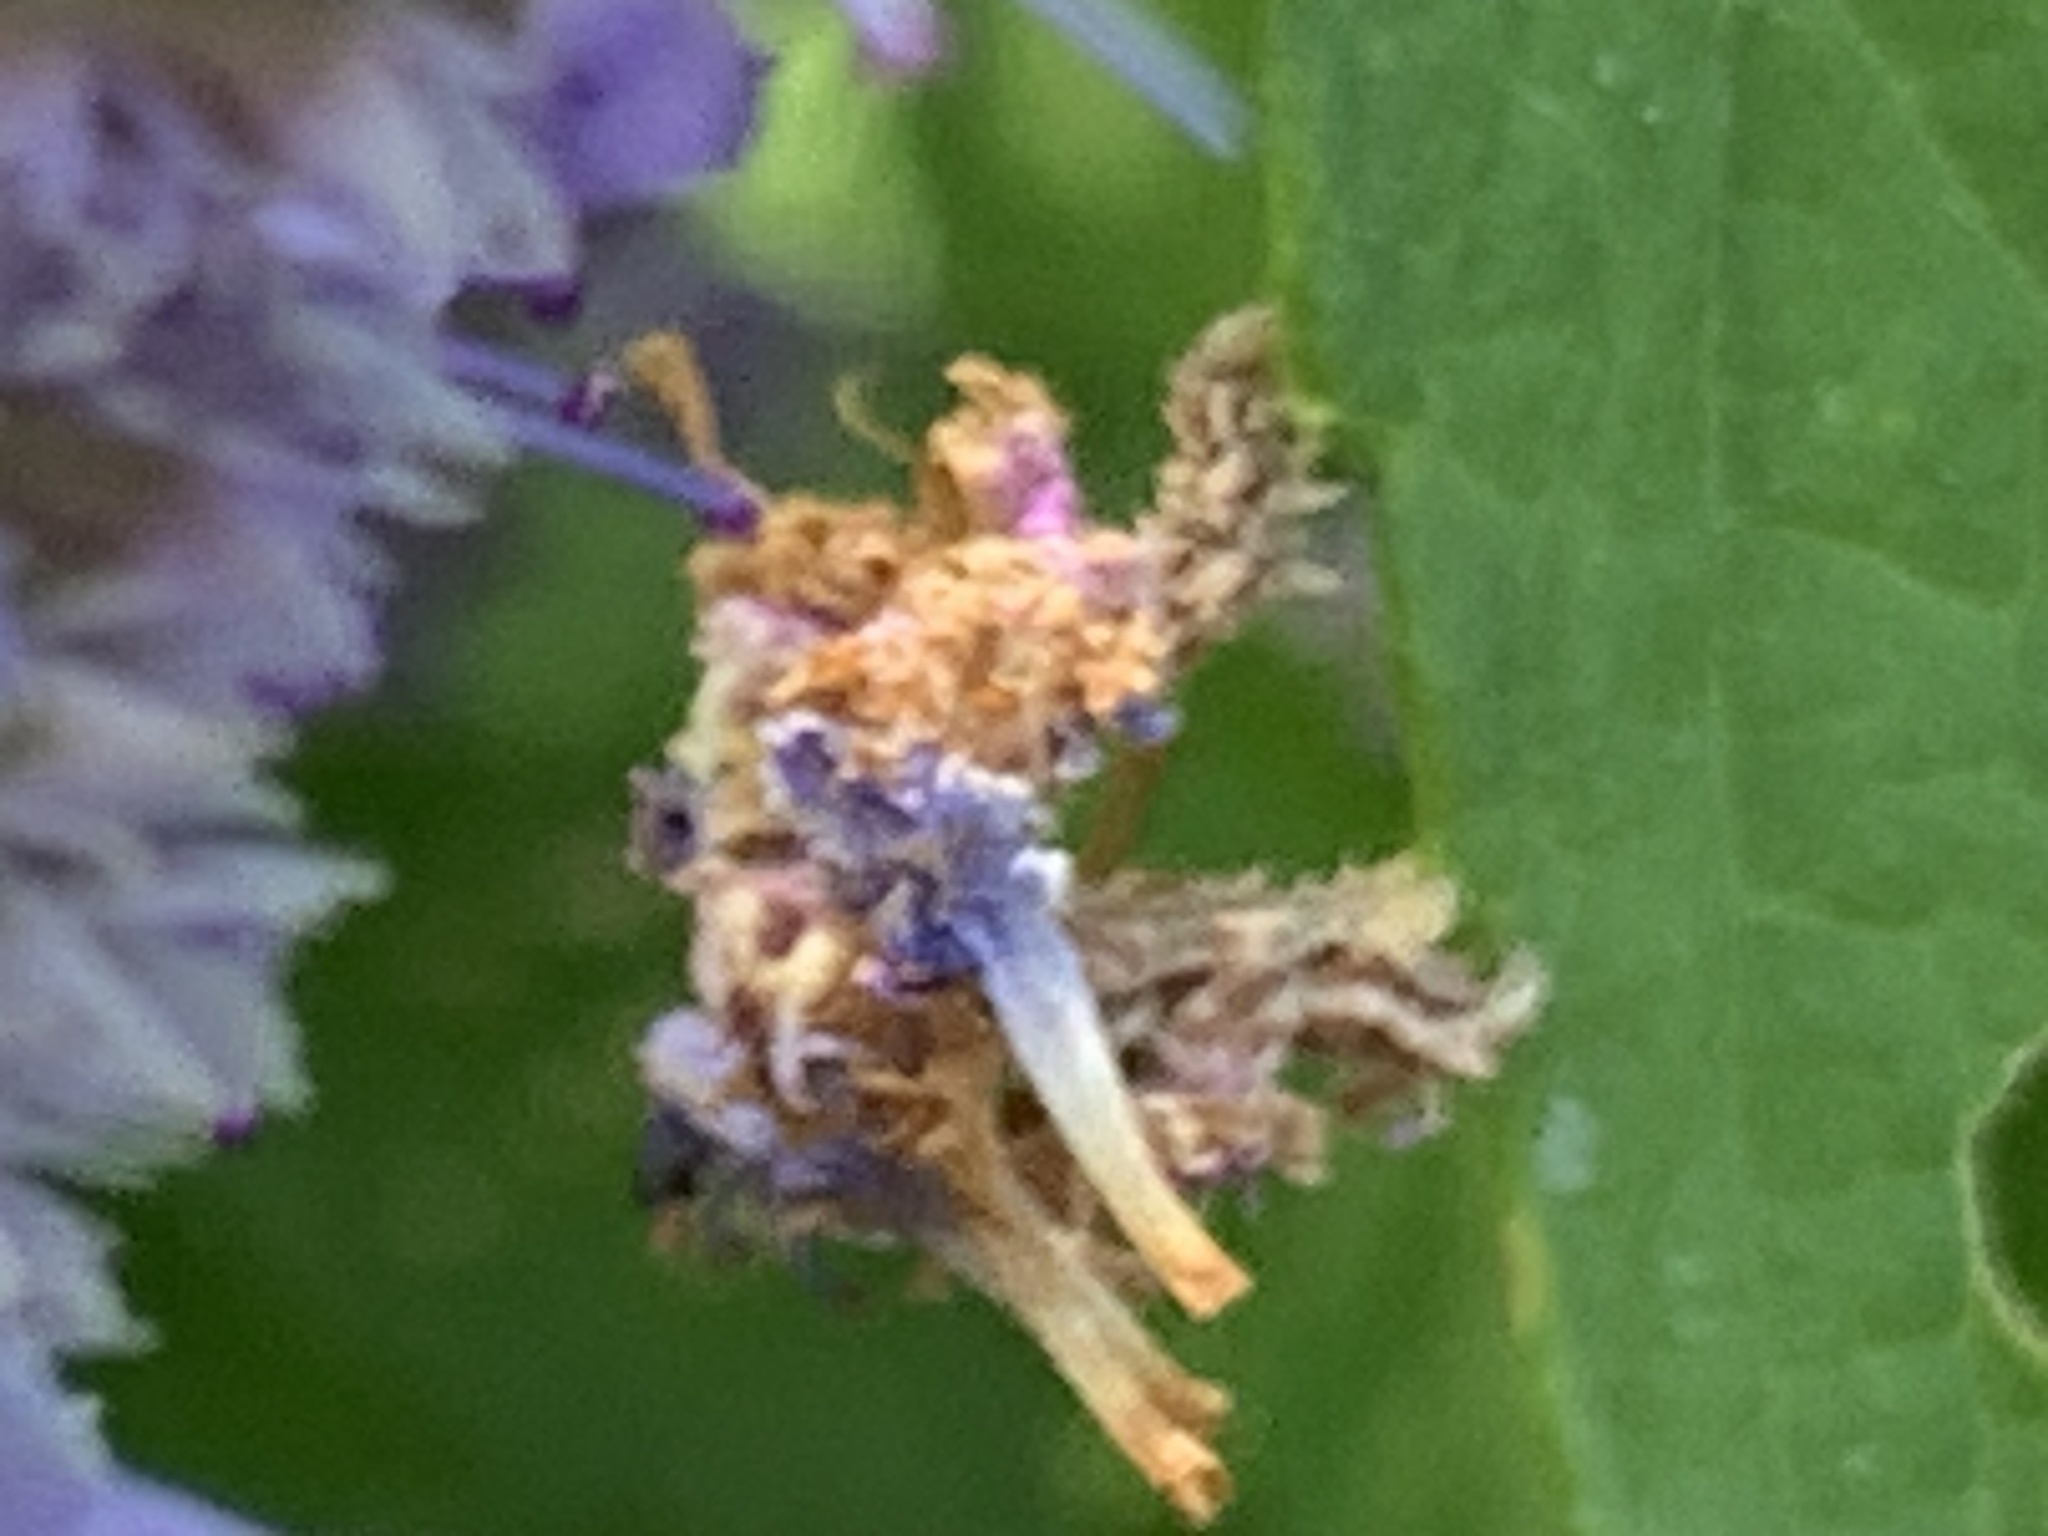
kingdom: Animalia
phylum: Arthropoda
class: Insecta
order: Lepidoptera
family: Geometridae
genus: Synchlora
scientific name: Synchlora aerata
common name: Wavy-lined emerald
